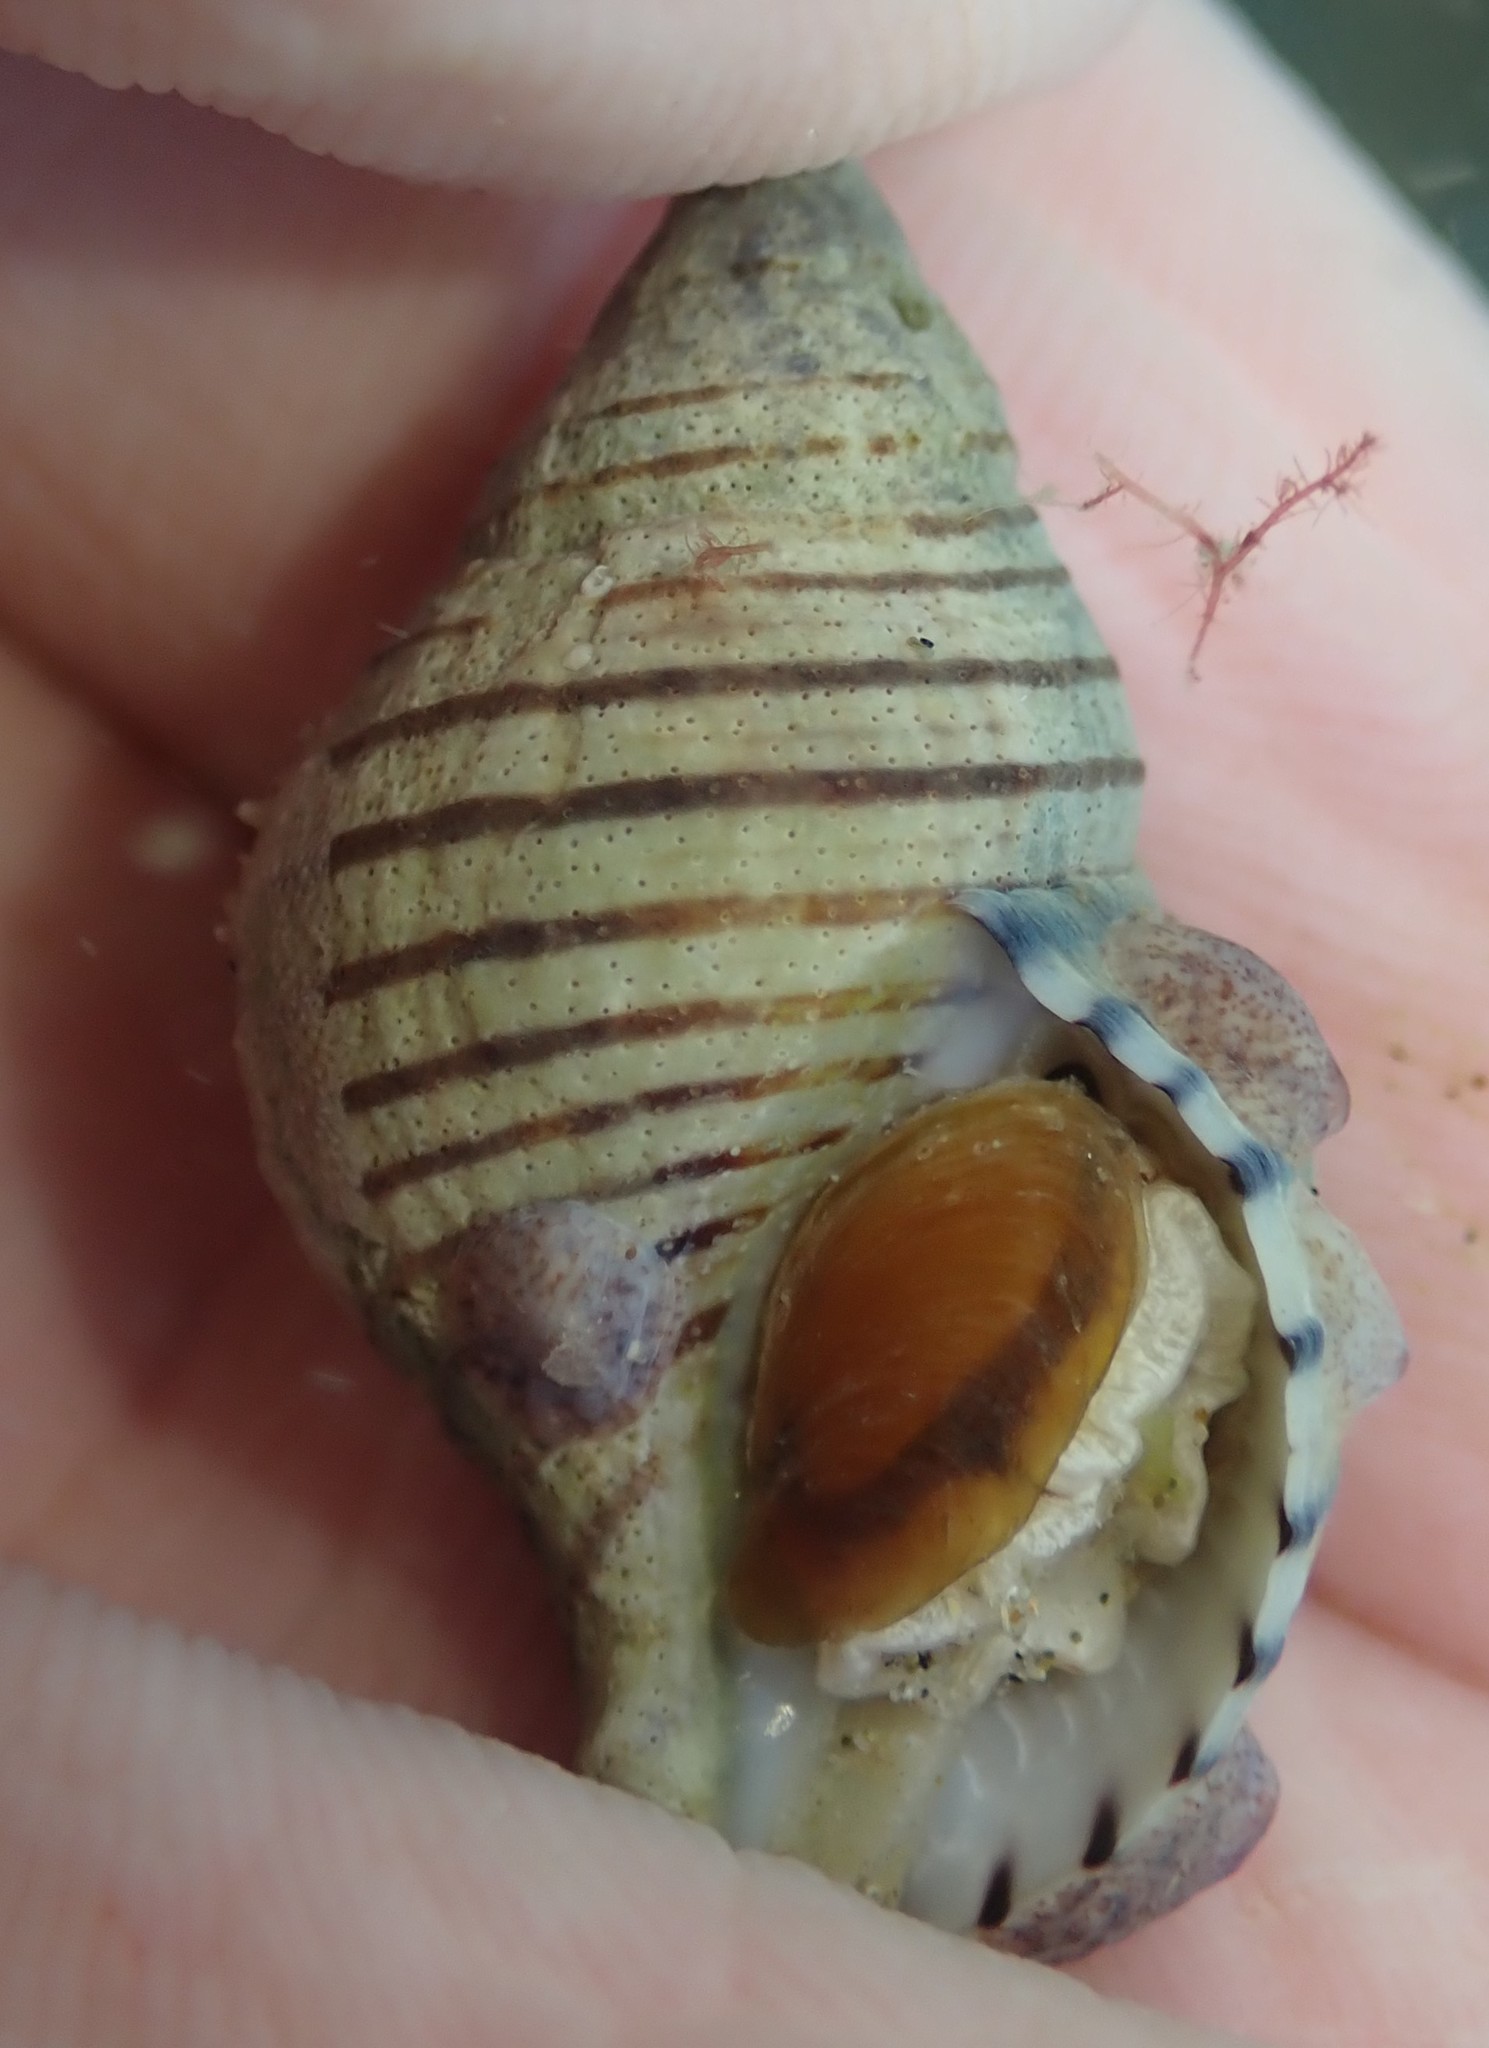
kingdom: Animalia
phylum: Mollusca
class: Gastropoda
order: Neogastropoda
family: Tudiclidae
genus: Buccinulum
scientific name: Buccinulum linea
